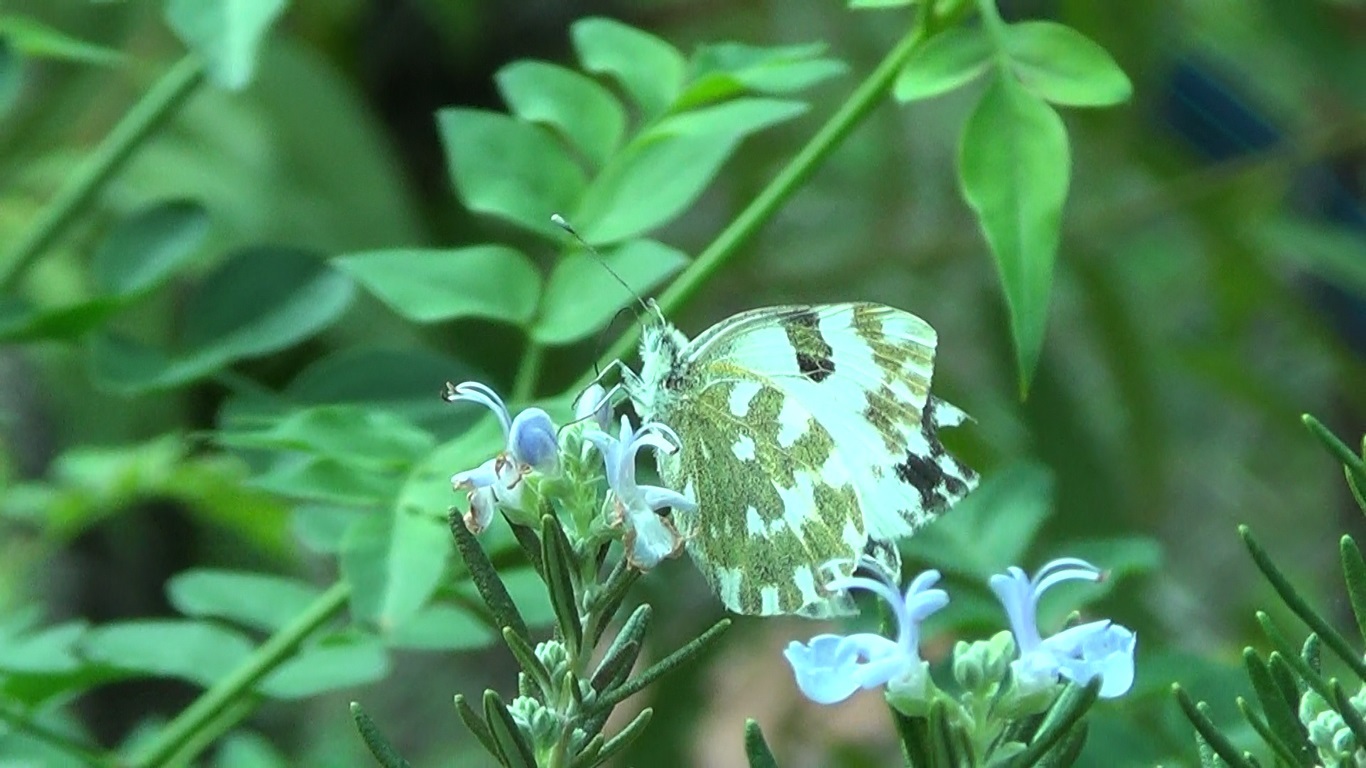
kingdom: Animalia
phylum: Arthropoda
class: Insecta
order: Lepidoptera
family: Pieridae
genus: Pontia
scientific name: Pontia edusa
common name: Eastern bath white
